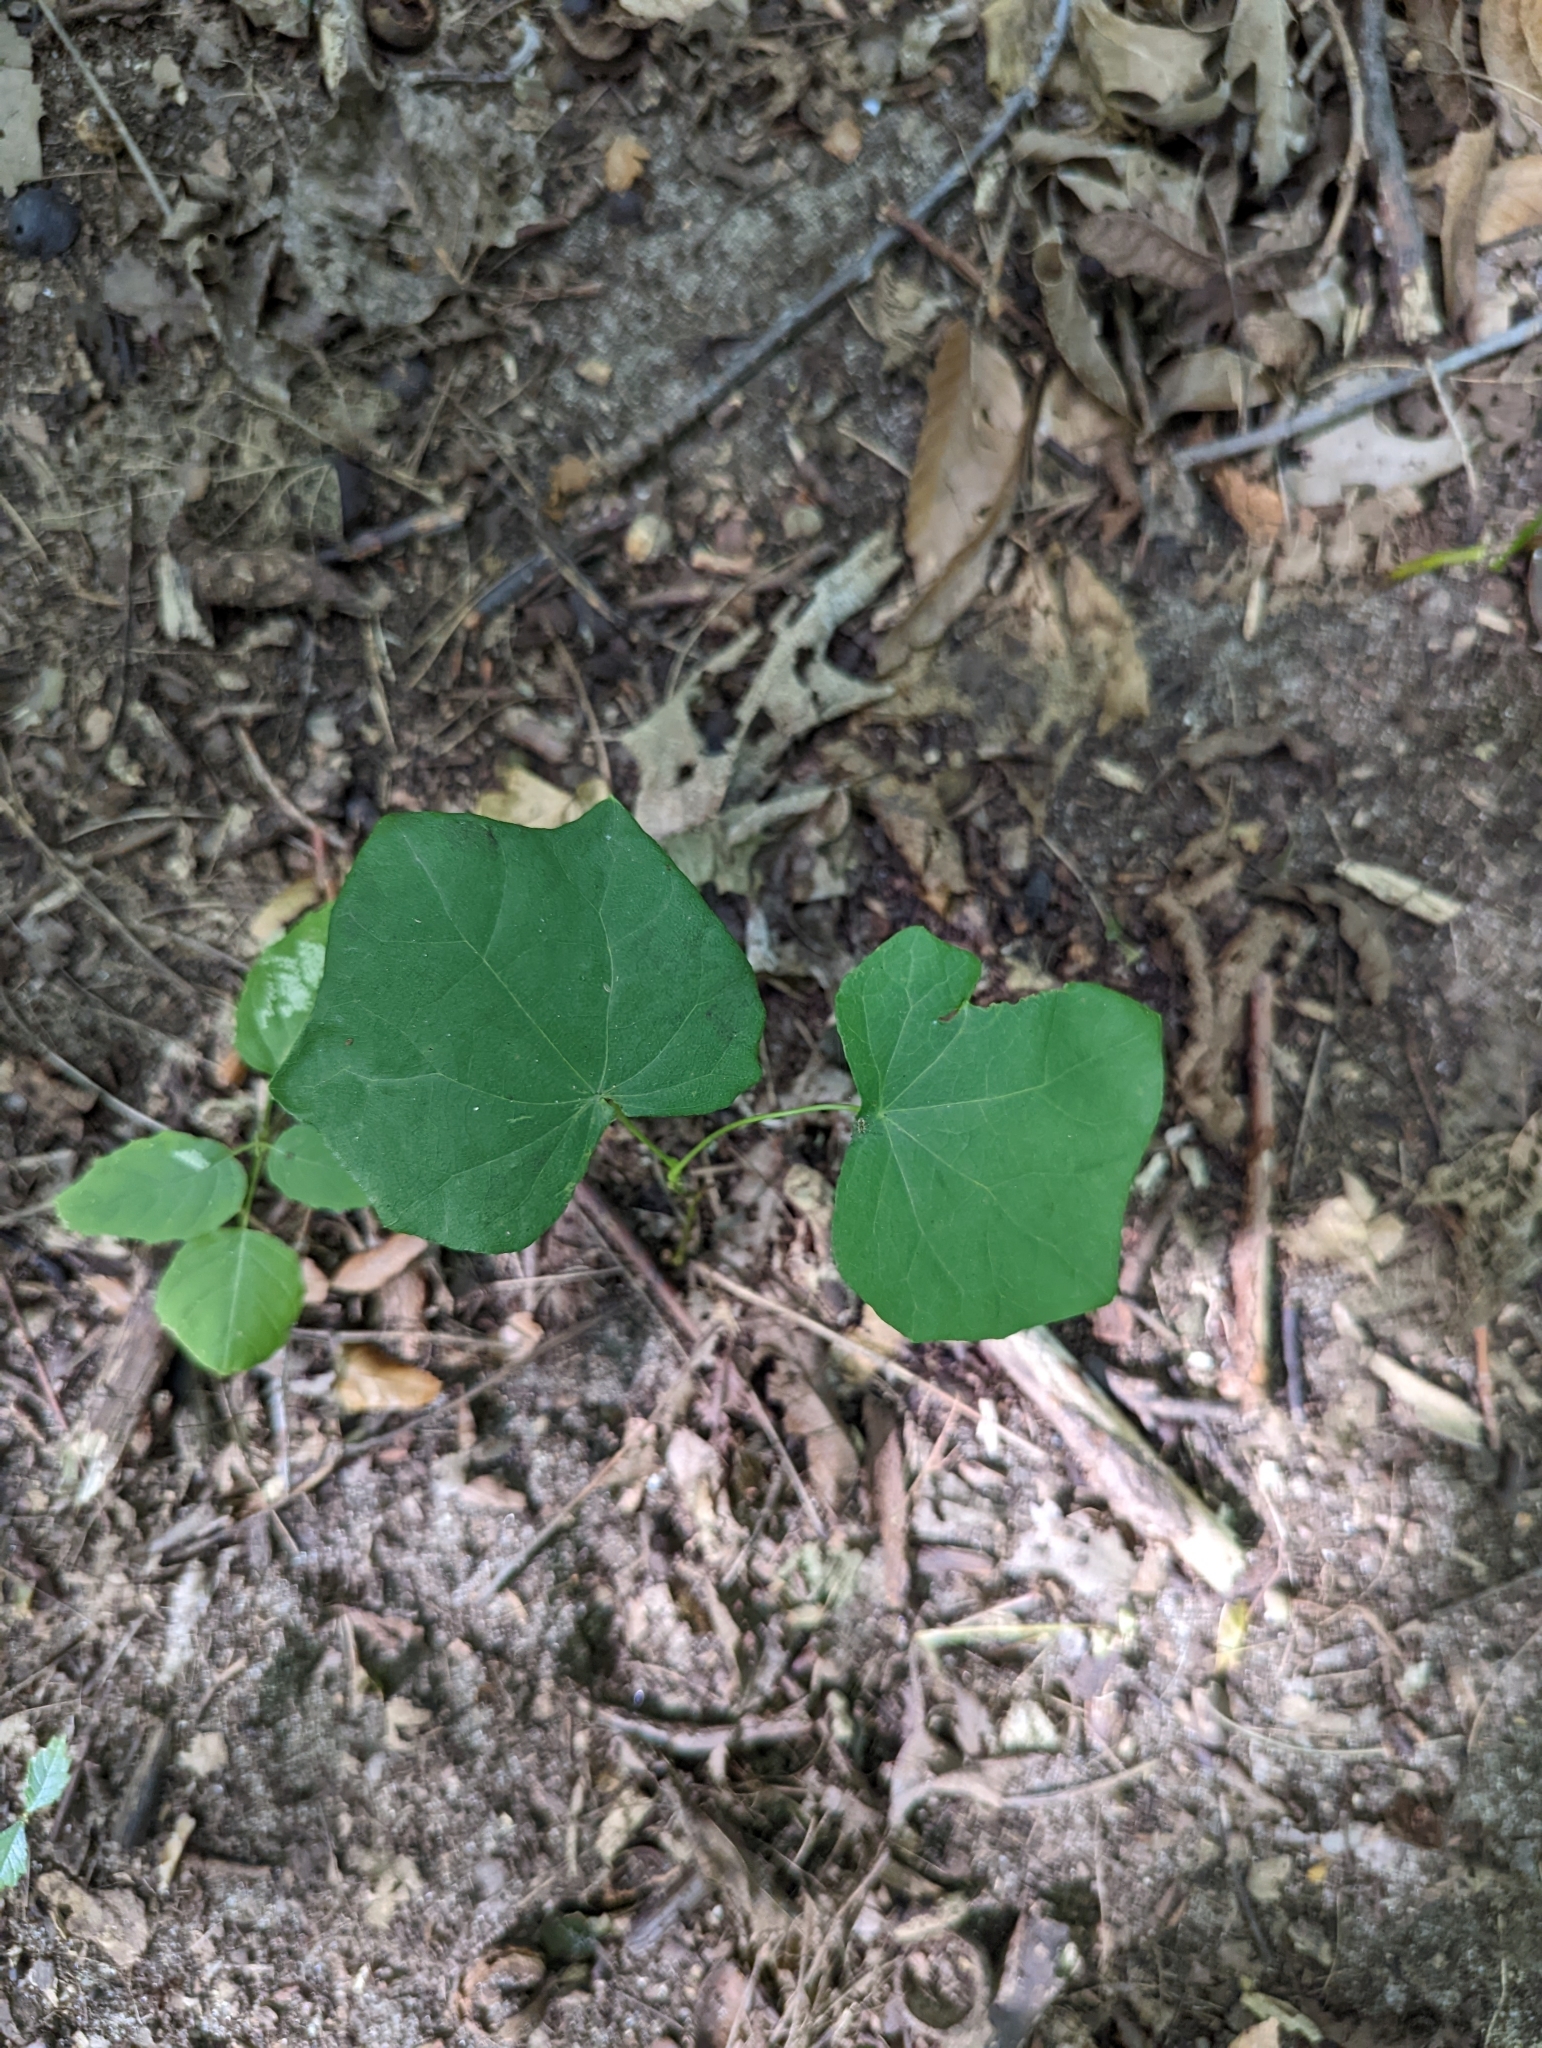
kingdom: Plantae
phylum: Tracheophyta
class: Magnoliopsida
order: Ranunculales
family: Menispermaceae
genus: Menispermum
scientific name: Menispermum canadense
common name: Moonseed
